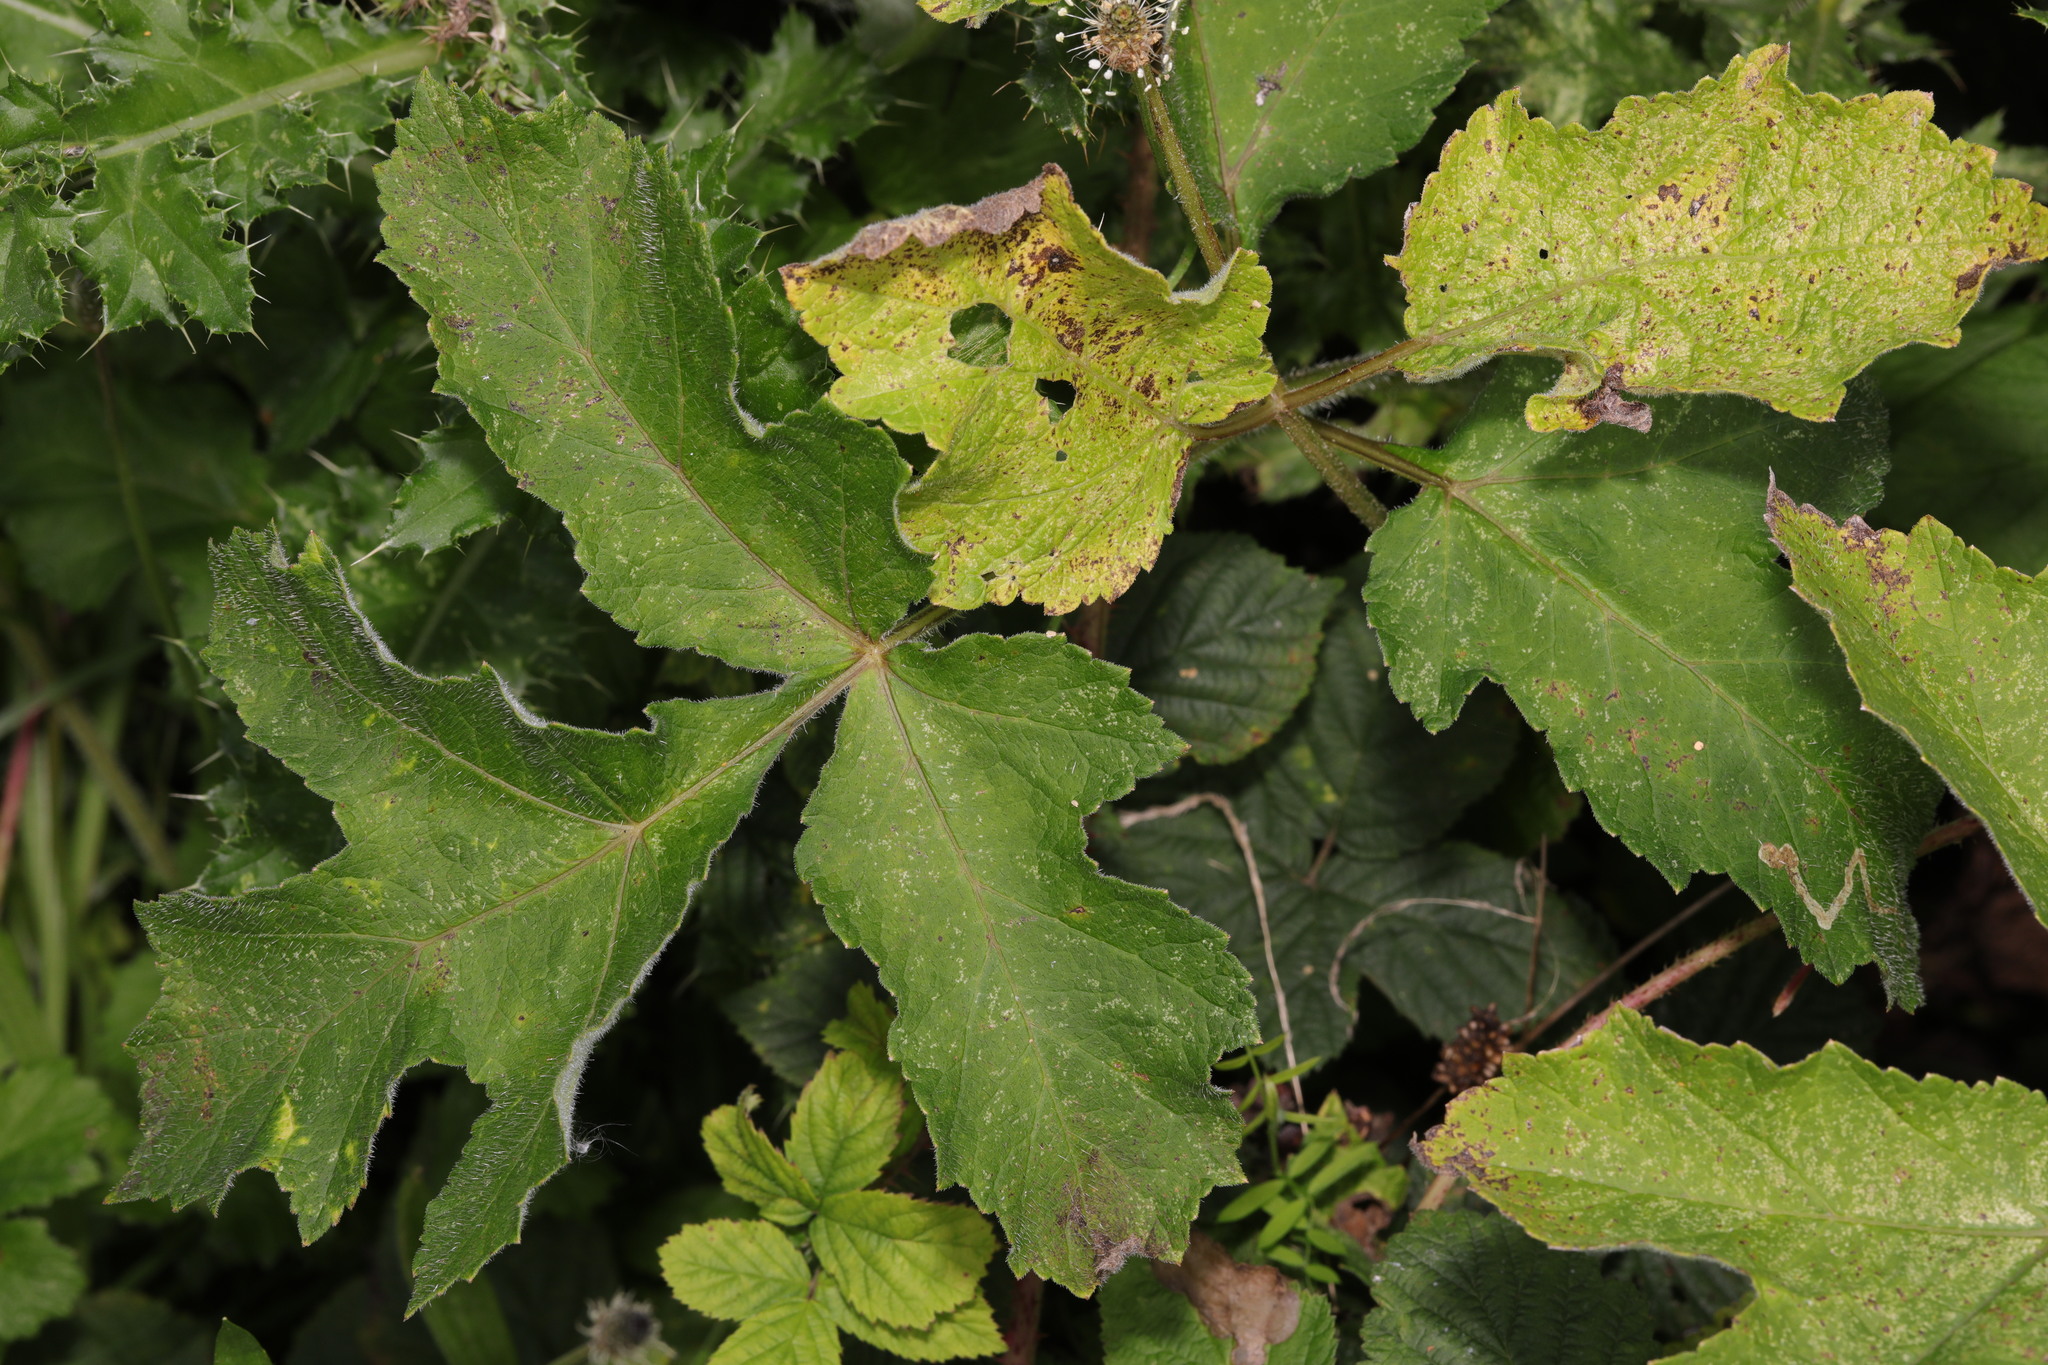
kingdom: Plantae
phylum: Tracheophyta
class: Magnoliopsida
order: Apiales
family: Apiaceae
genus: Heracleum
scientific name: Heracleum sphondylium
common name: Hogweed
